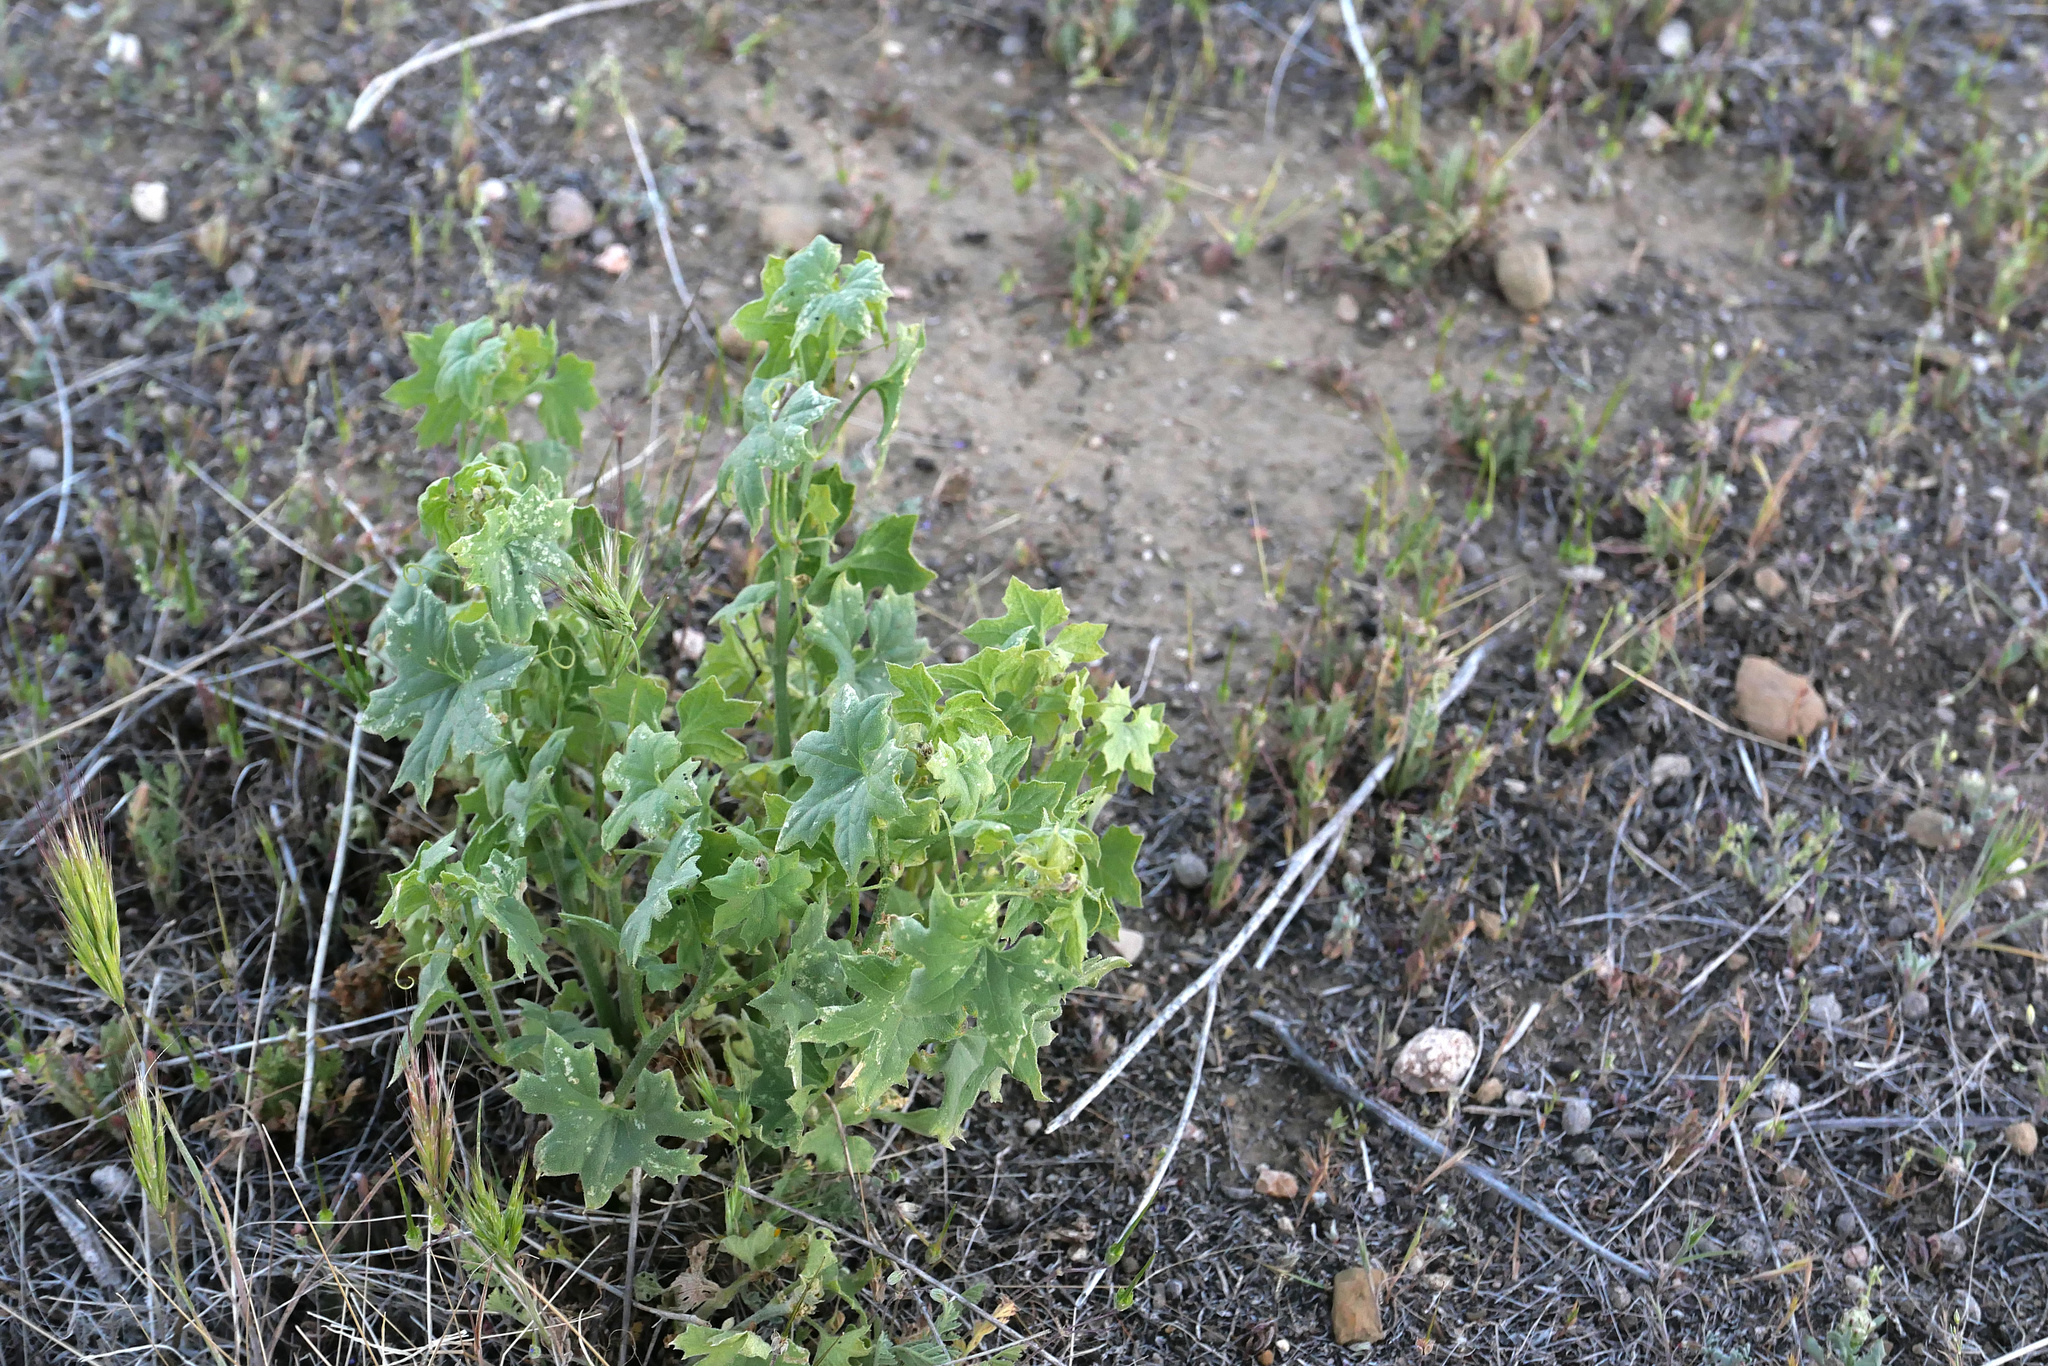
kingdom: Plantae
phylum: Tracheophyta
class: Magnoliopsida
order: Cucurbitales
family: Cucurbitaceae
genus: Marah
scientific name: Marah fabacea
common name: California manroot
